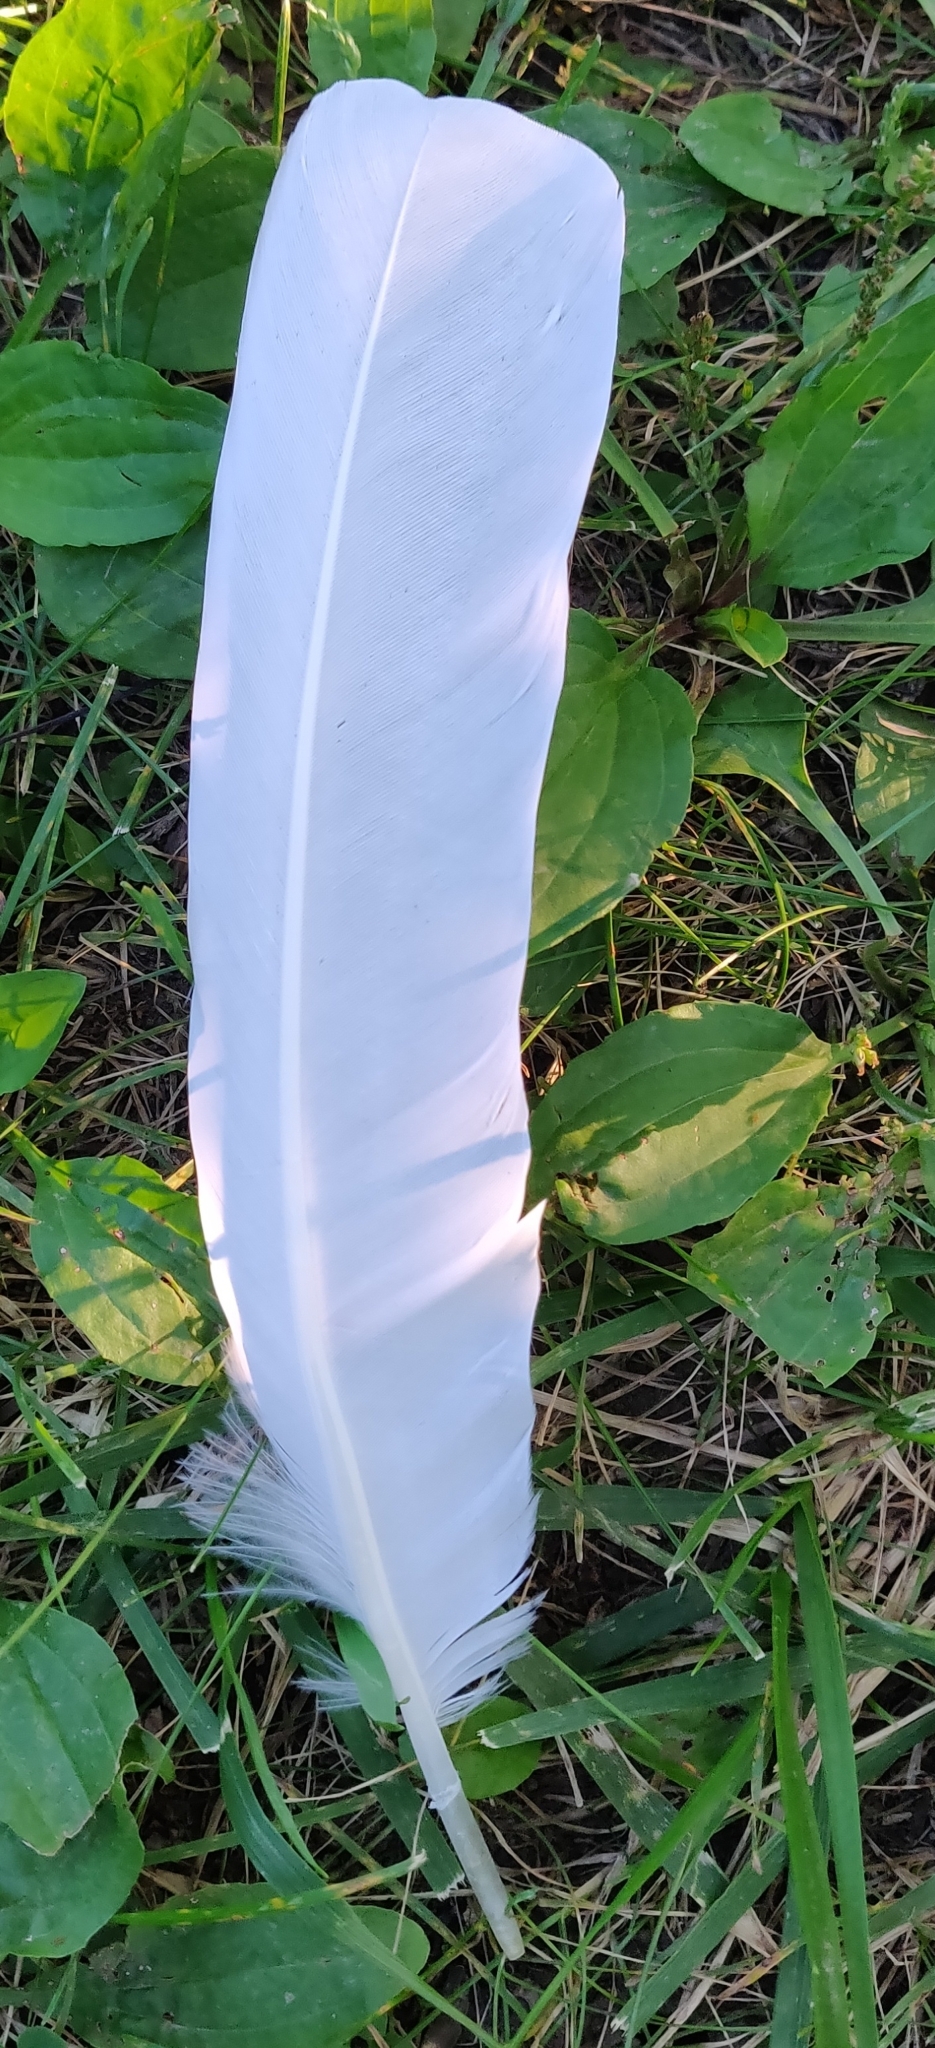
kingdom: Animalia
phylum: Chordata
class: Aves
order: Pelecaniformes
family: Ardeidae
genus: Ardea
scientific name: Ardea alba
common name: Great egret
